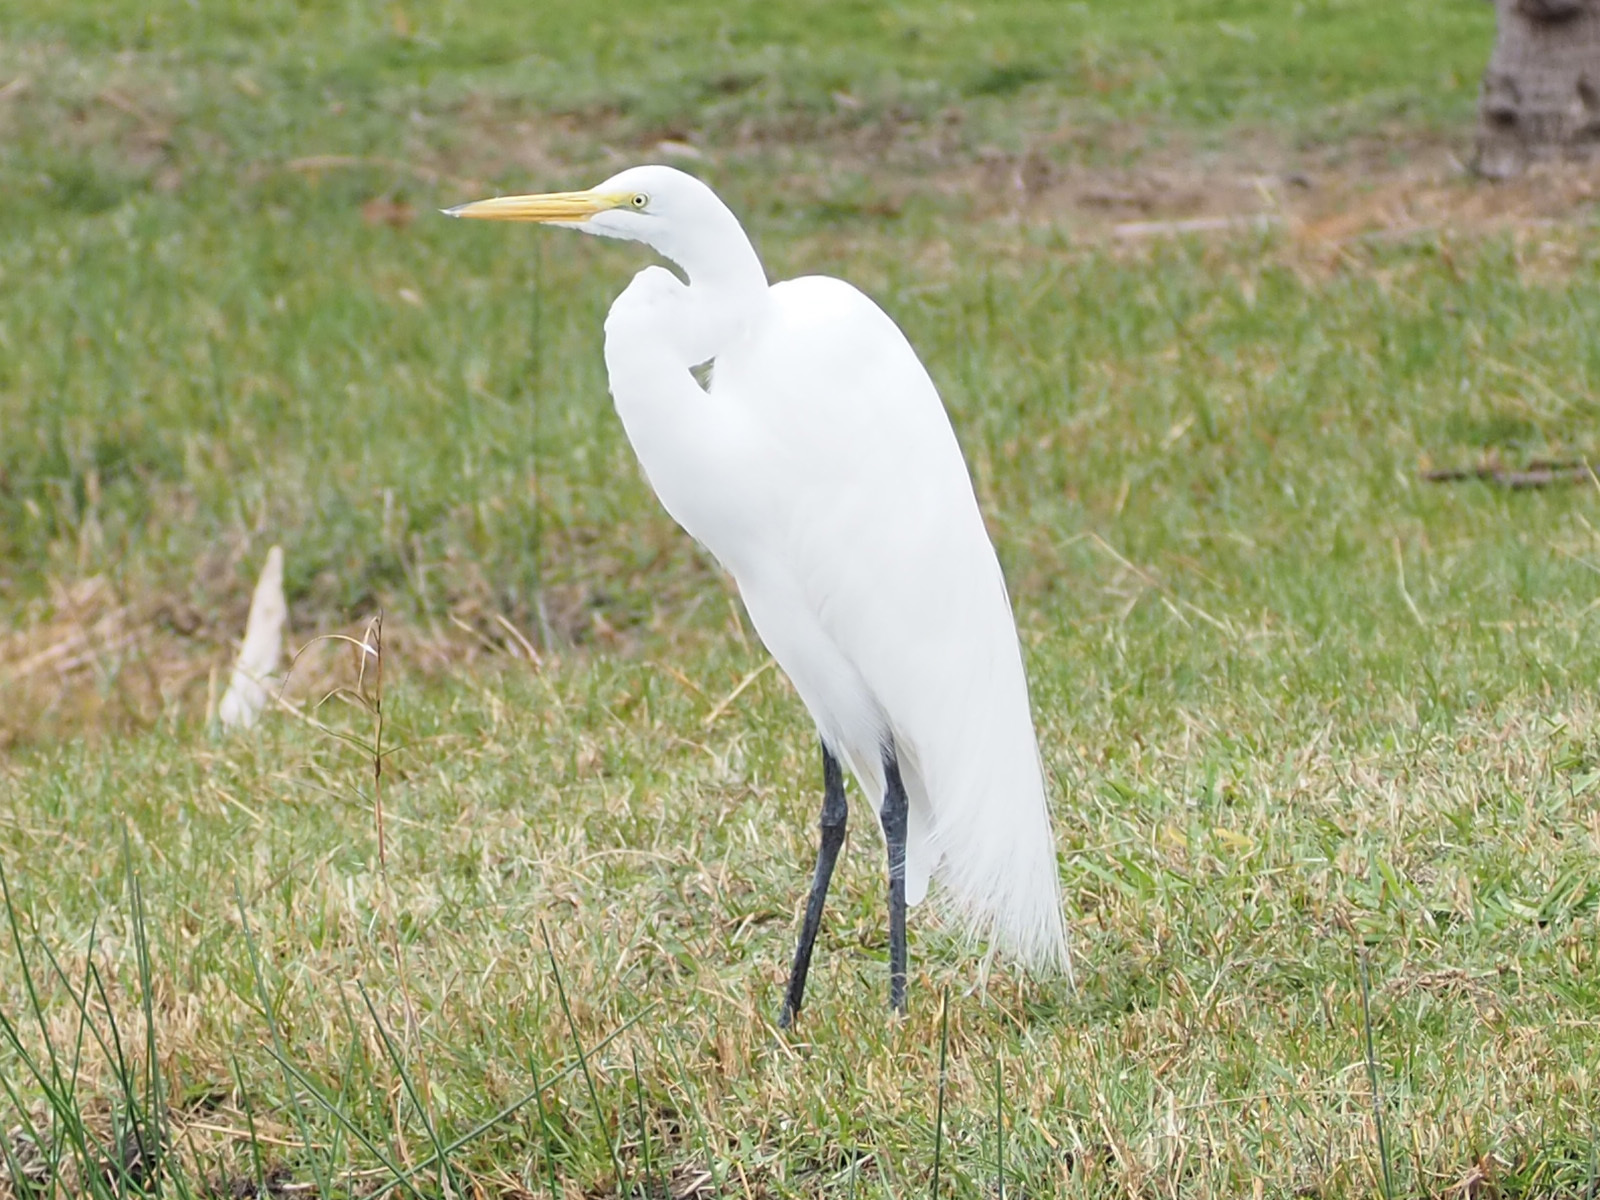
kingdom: Animalia
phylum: Chordata
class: Aves
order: Pelecaniformes
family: Ardeidae
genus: Ardea
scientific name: Ardea alba
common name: Great egret
